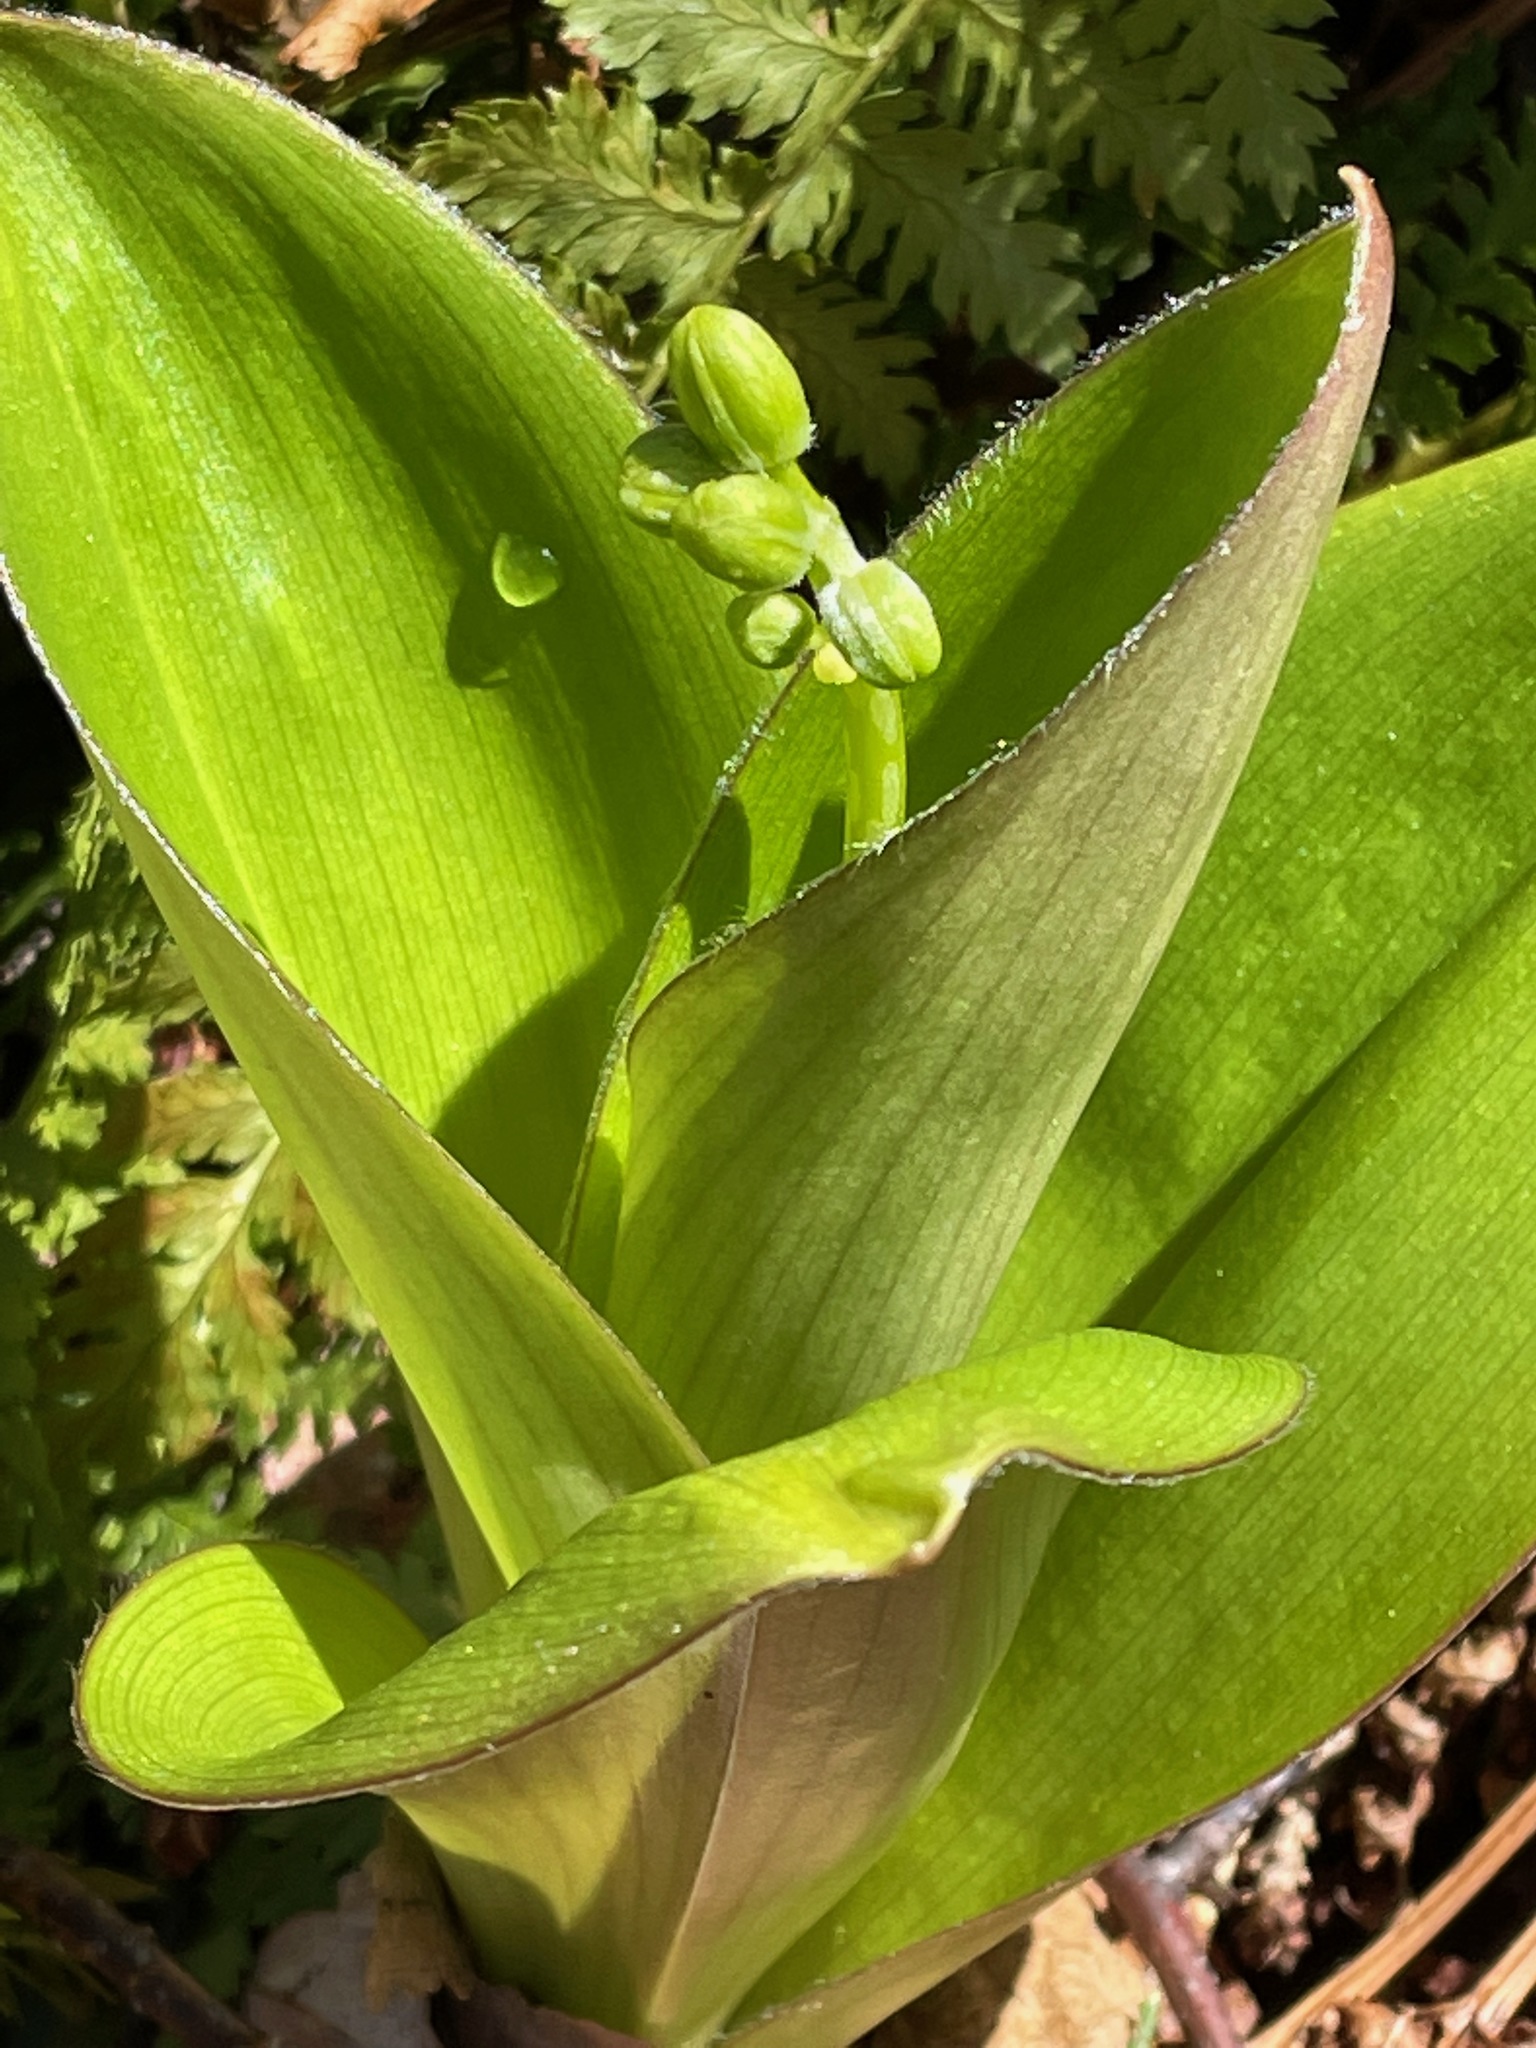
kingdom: Plantae
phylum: Tracheophyta
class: Liliopsida
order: Liliales
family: Liliaceae
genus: Clintonia
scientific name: Clintonia borealis
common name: Yellow clintonia
